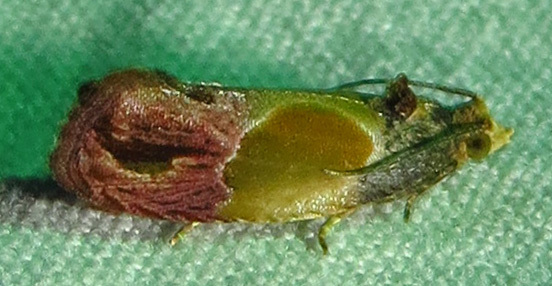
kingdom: Animalia
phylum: Arthropoda
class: Insecta
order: Lepidoptera
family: Tortricidae
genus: Eumarozia
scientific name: Eumarozia malachitana
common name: Sculptured moth
